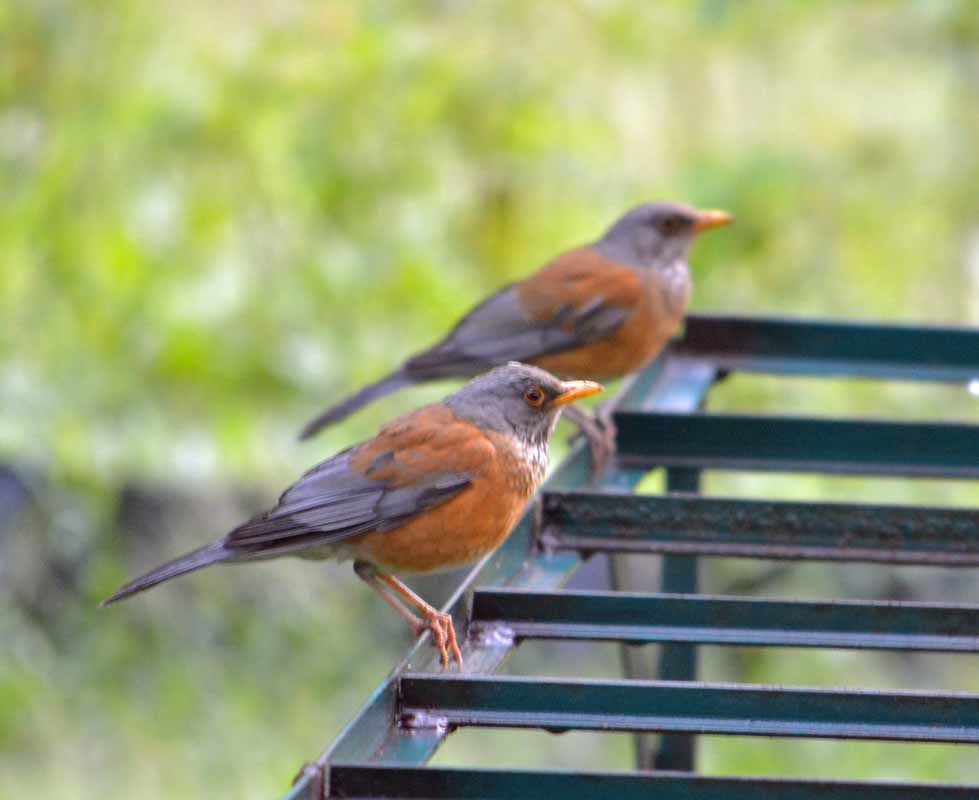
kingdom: Animalia
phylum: Chordata
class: Aves
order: Passeriformes
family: Turdidae
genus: Turdus
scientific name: Turdus rufopalliatus
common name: Rufous-backed robin
